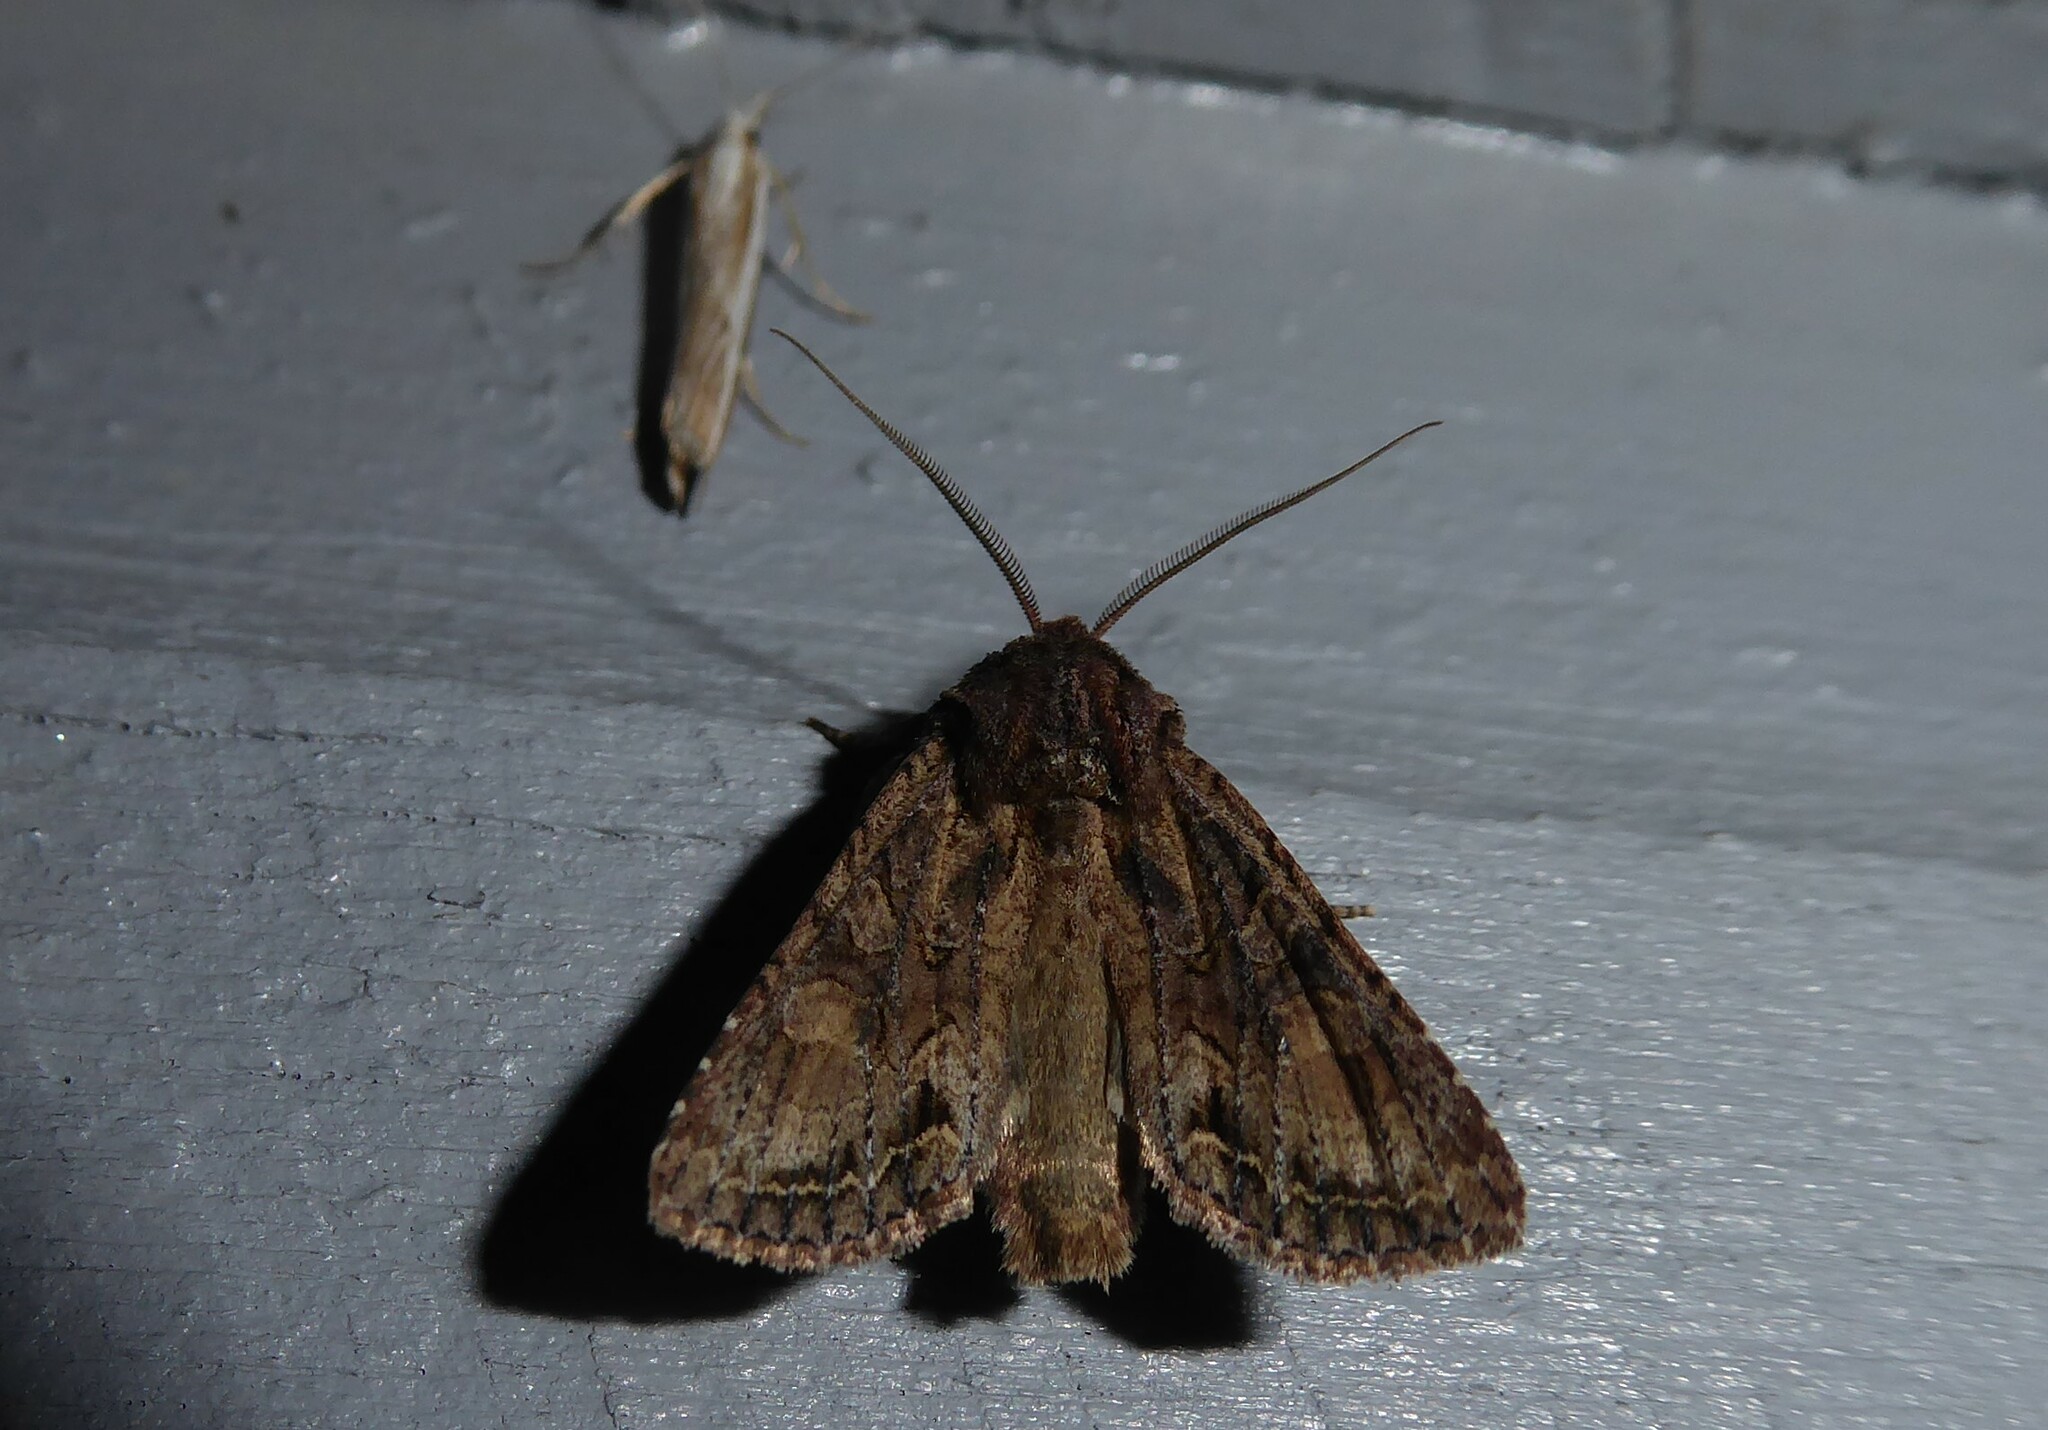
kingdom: Animalia
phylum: Arthropoda
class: Insecta
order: Lepidoptera
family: Noctuidae
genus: Ichneutica
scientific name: Ichneutica mutans
